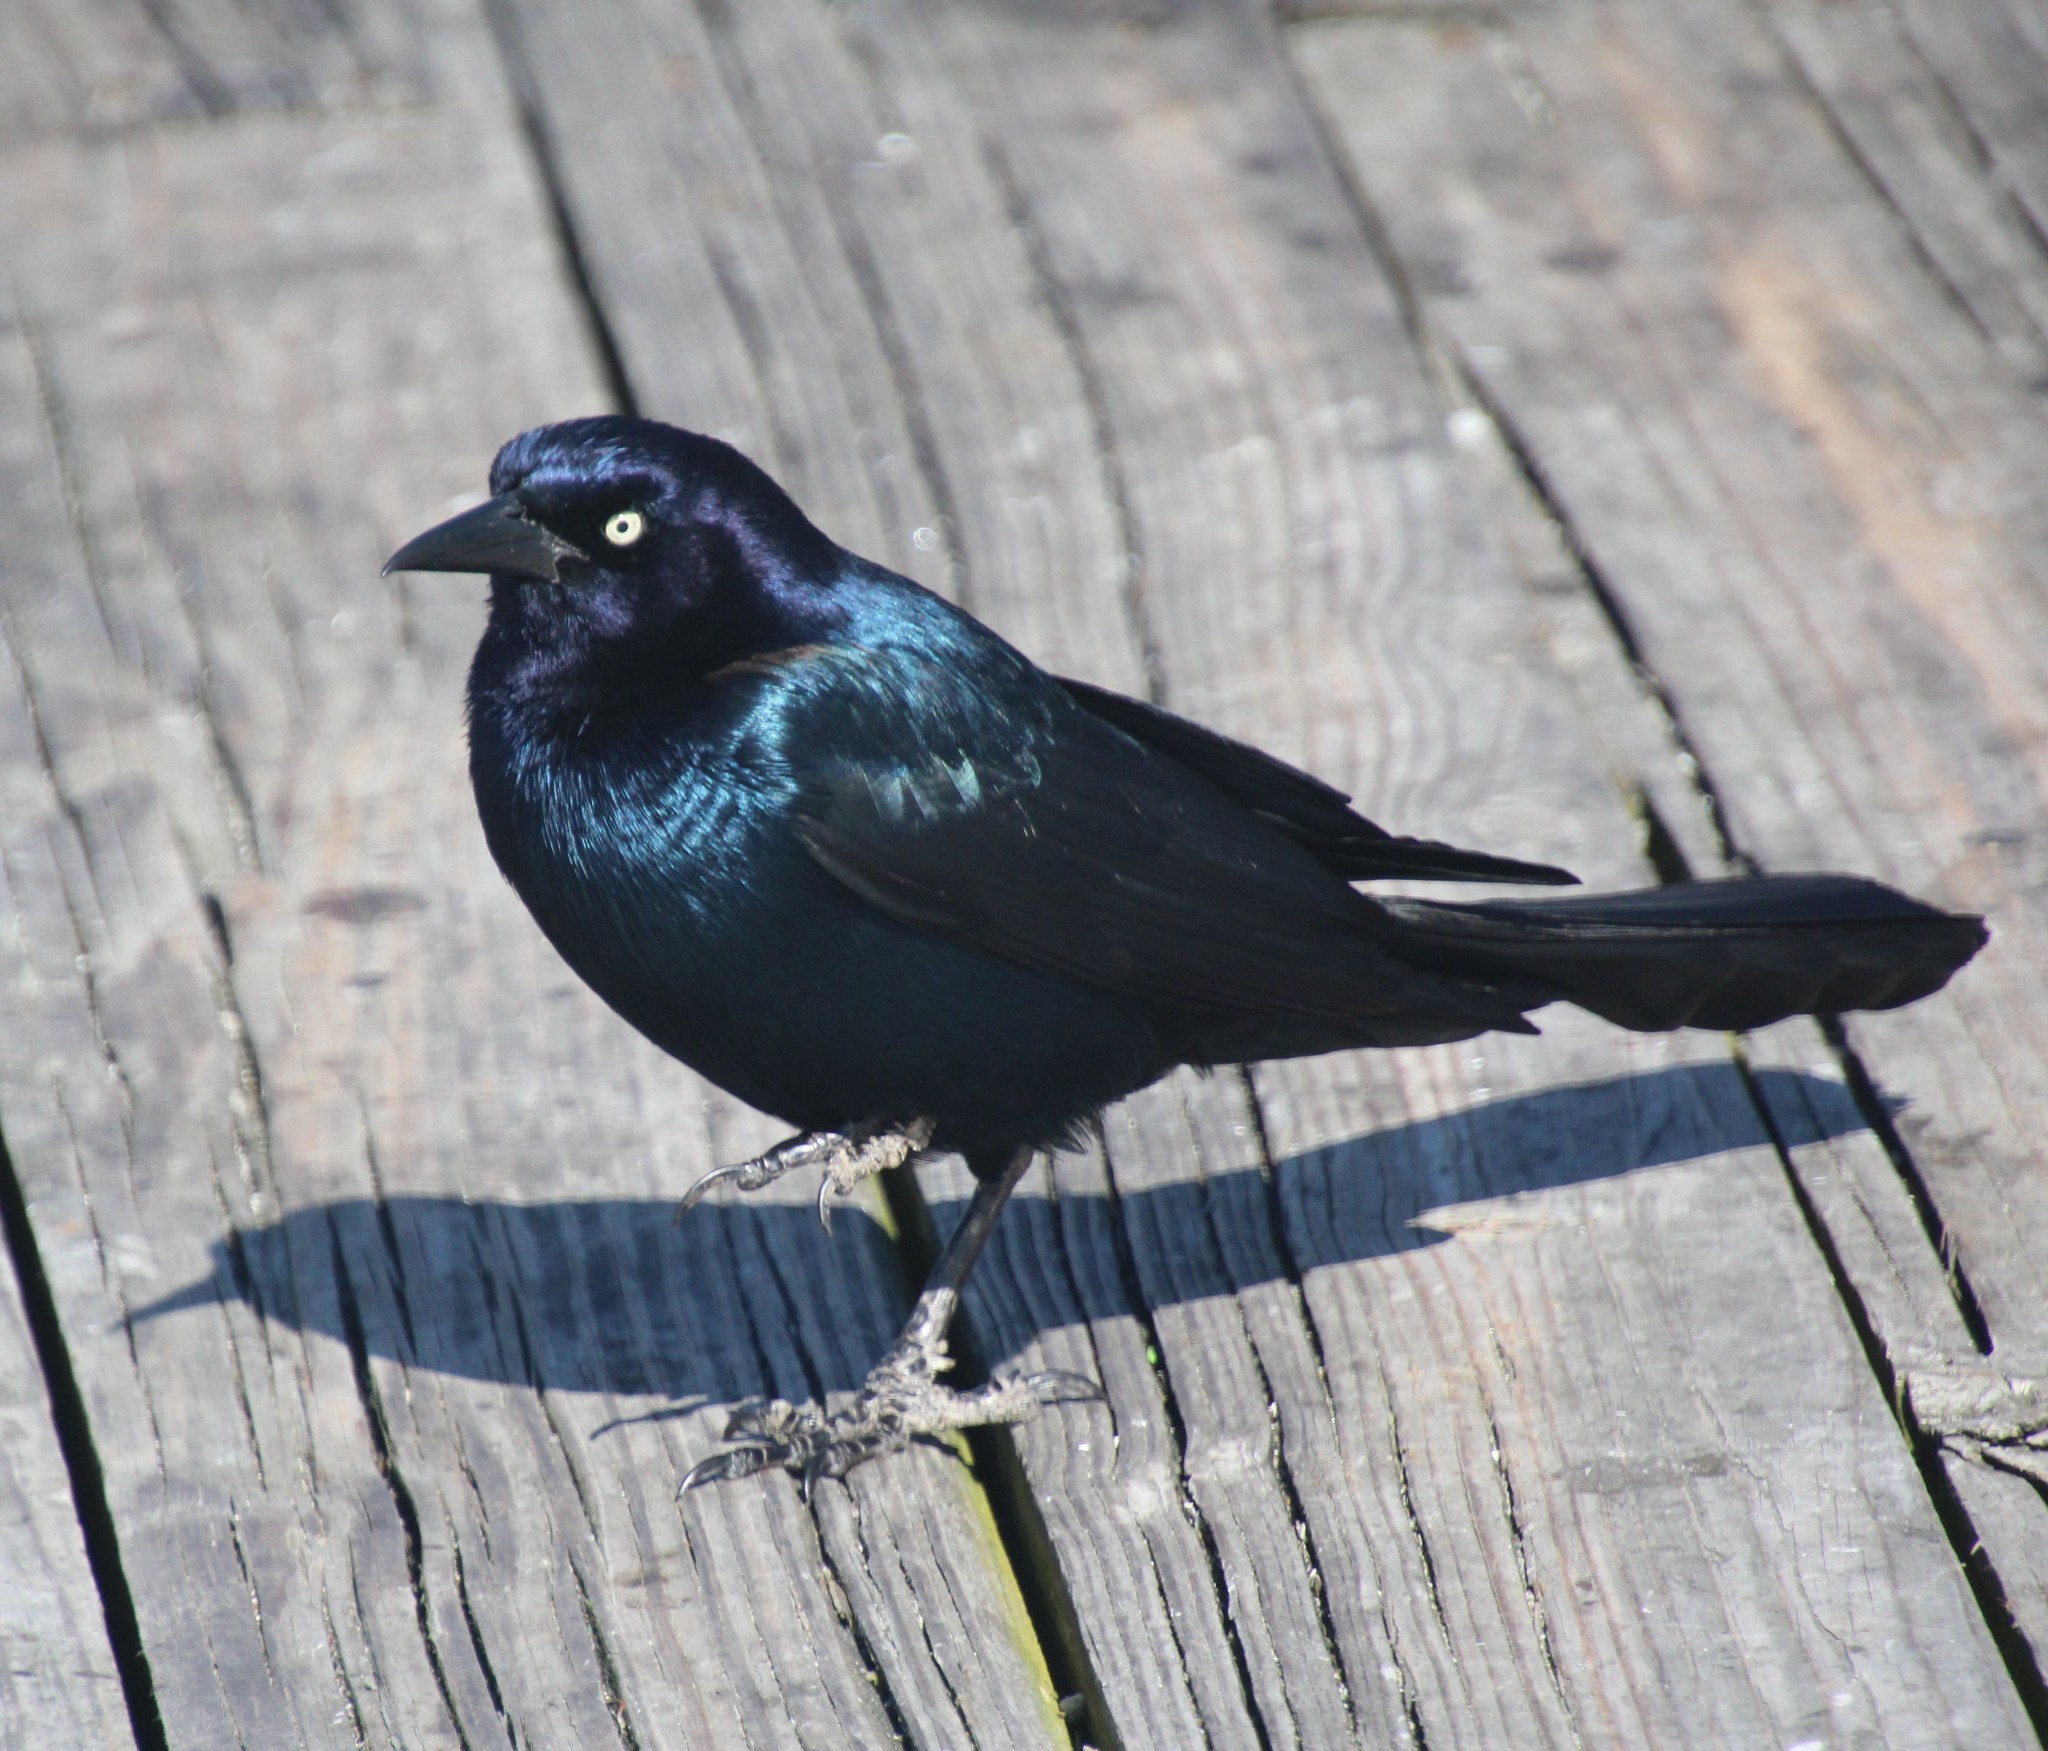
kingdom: Animalia
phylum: Chordata
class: Aves
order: Passeriformes
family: Icteridae
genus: Quiscalus
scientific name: Quiscalus major
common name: Boat-tailed grackle
